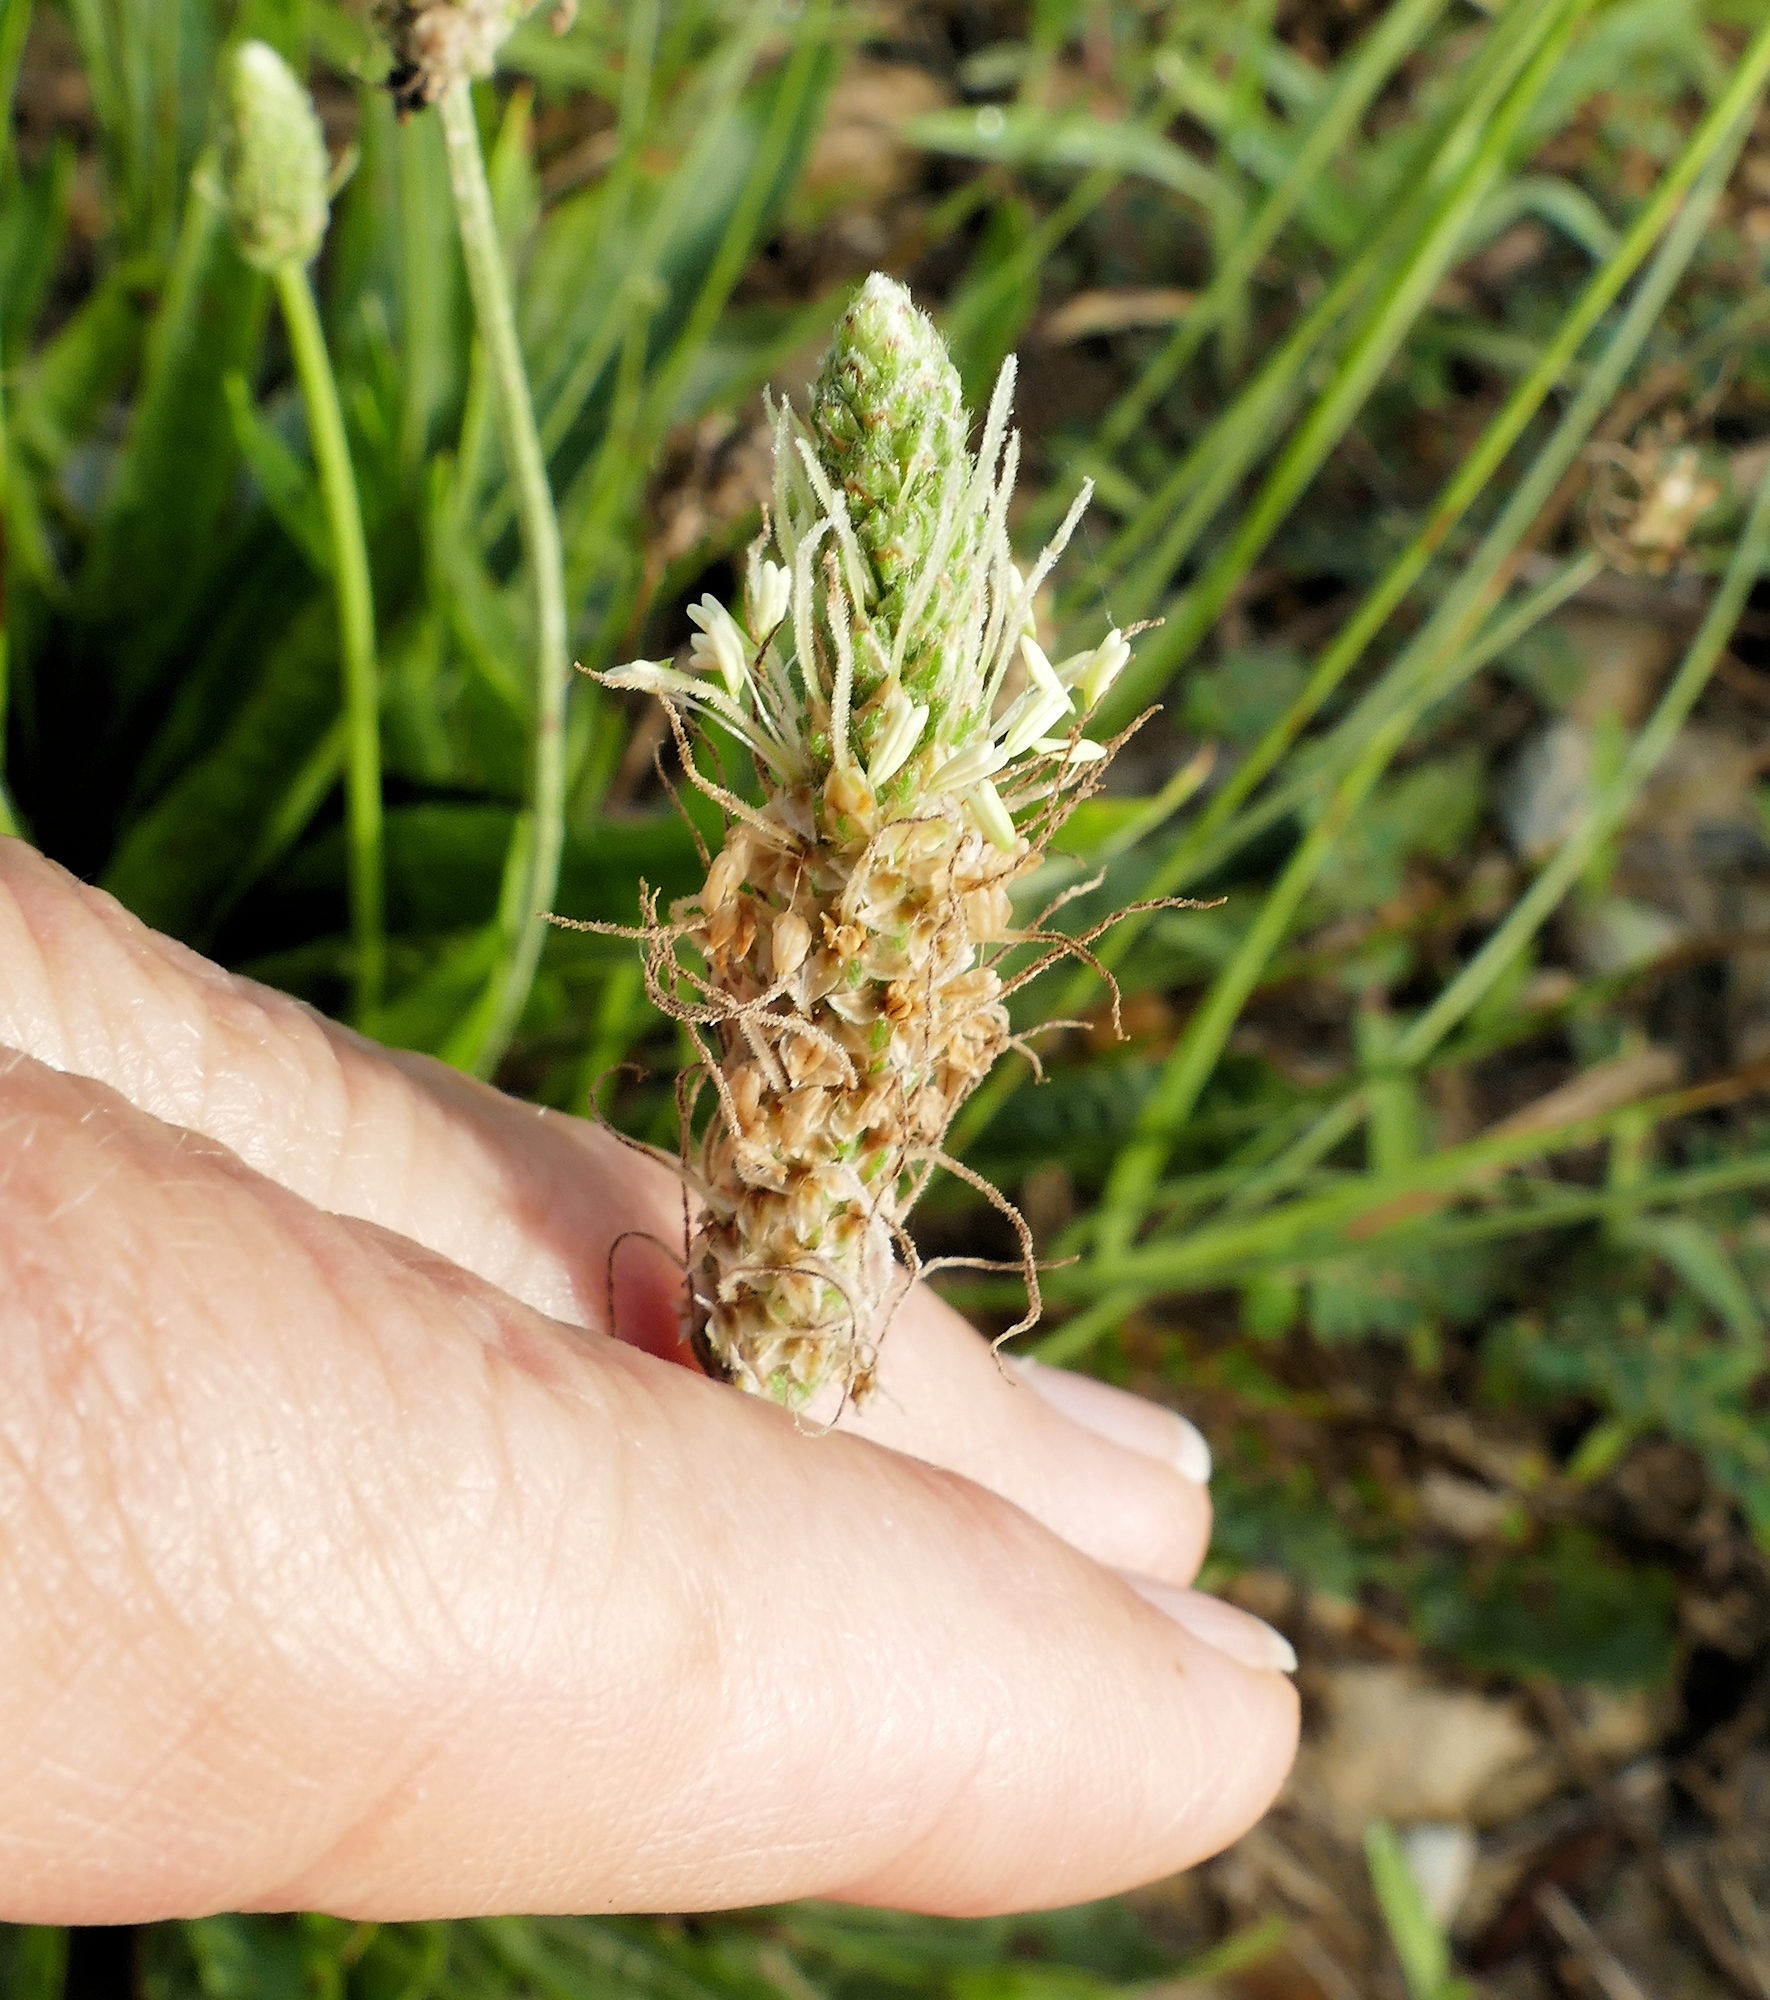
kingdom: Plantae
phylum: Tracheophyta
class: Magnoliopsida
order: Lamiales
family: Plantaginaceae
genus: Plantago
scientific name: Plantago lanceolata
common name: Ribwort plantain
